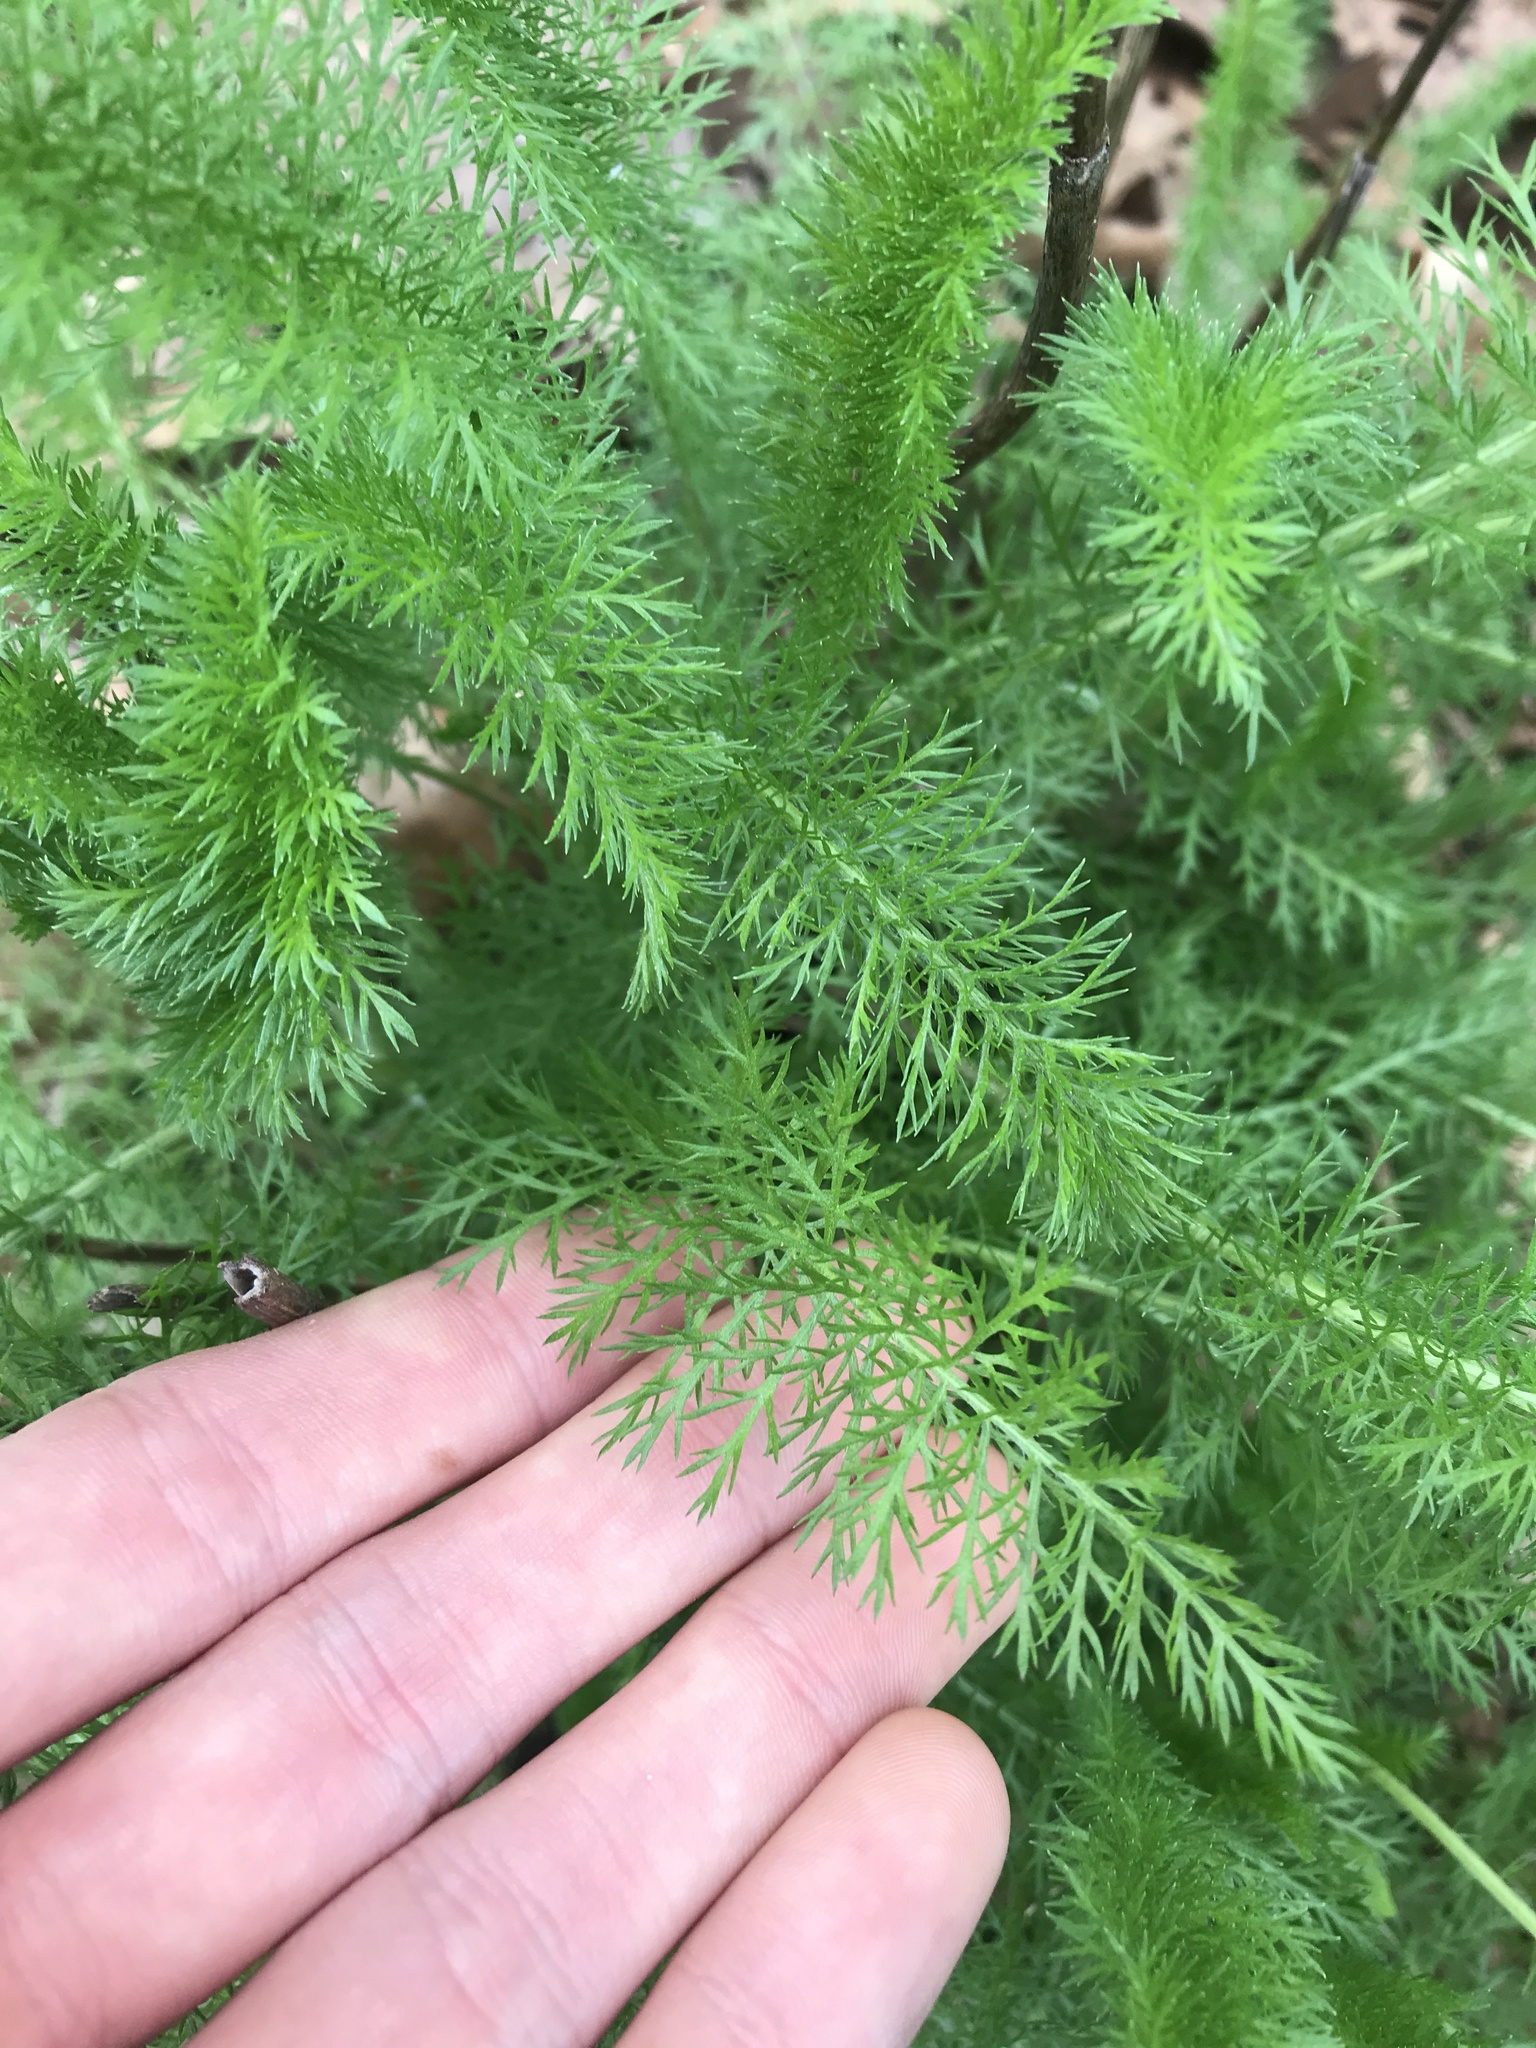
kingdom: Plantae
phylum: Tracheophyta
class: Magnoliopsida
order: Asterales
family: Asteraceae
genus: Achillea
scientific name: Achillea millefolium
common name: Yarrow
